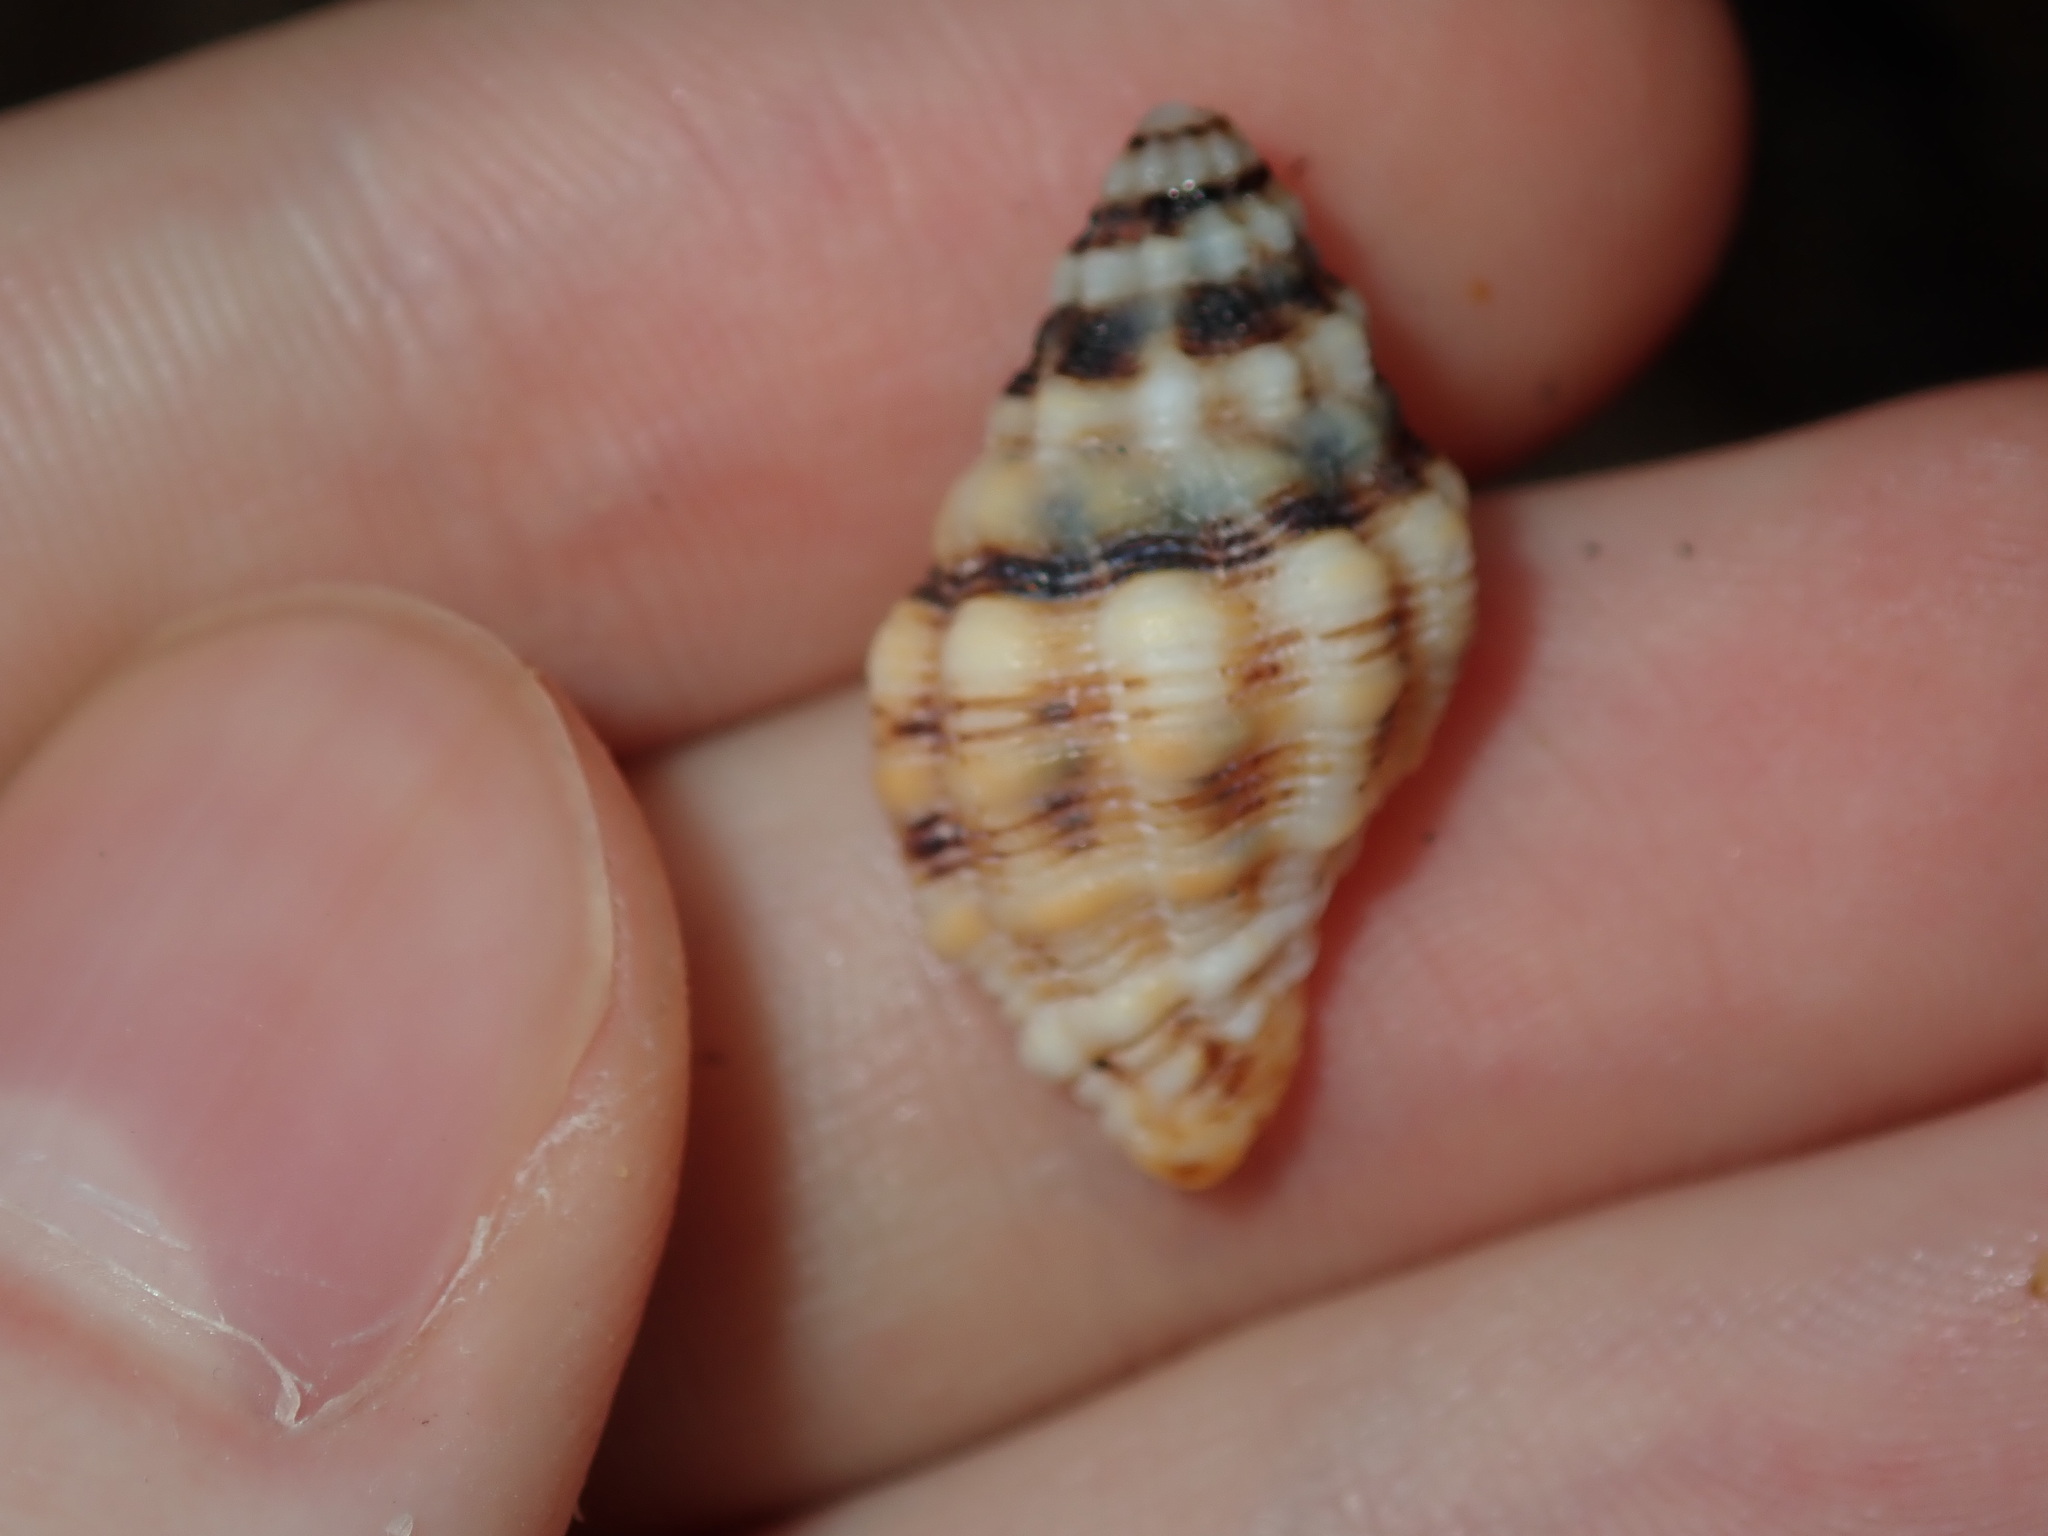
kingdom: Animalia
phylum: Mollusca
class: Gastropoda
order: Neogastropoda
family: Muricidae
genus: Cronia
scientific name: Cronia aurantiaca
